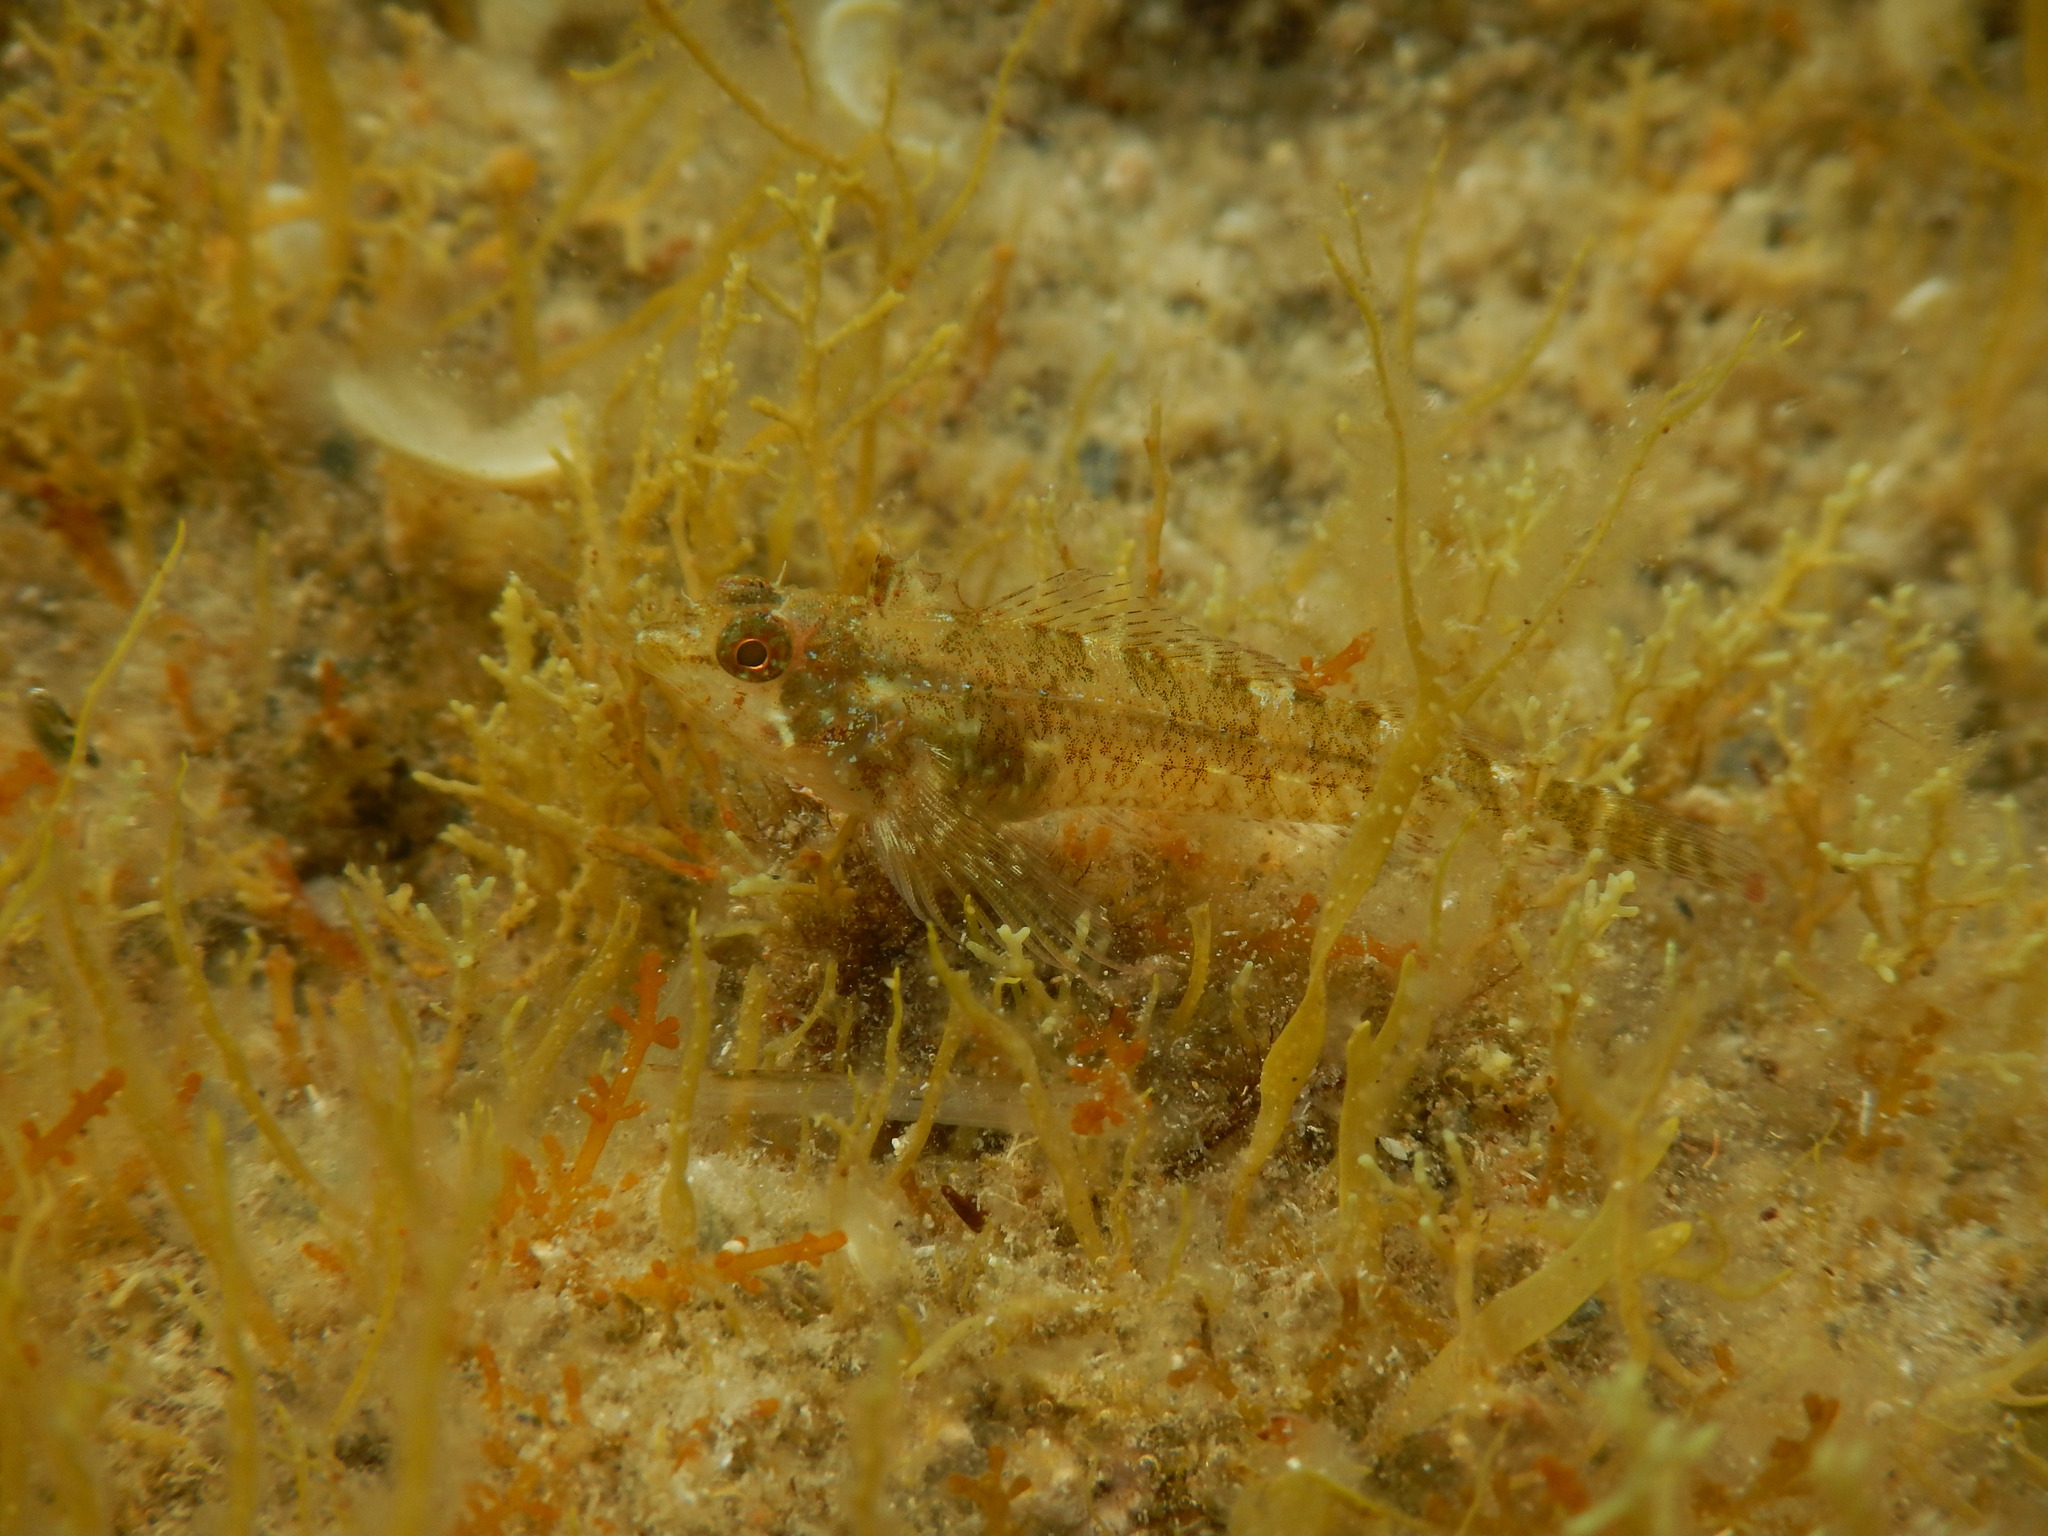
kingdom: Animalia
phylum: Chordata
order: Perciformes
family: Tripterygiidae
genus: Tripterygion
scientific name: Tripterygion tripteronotum
